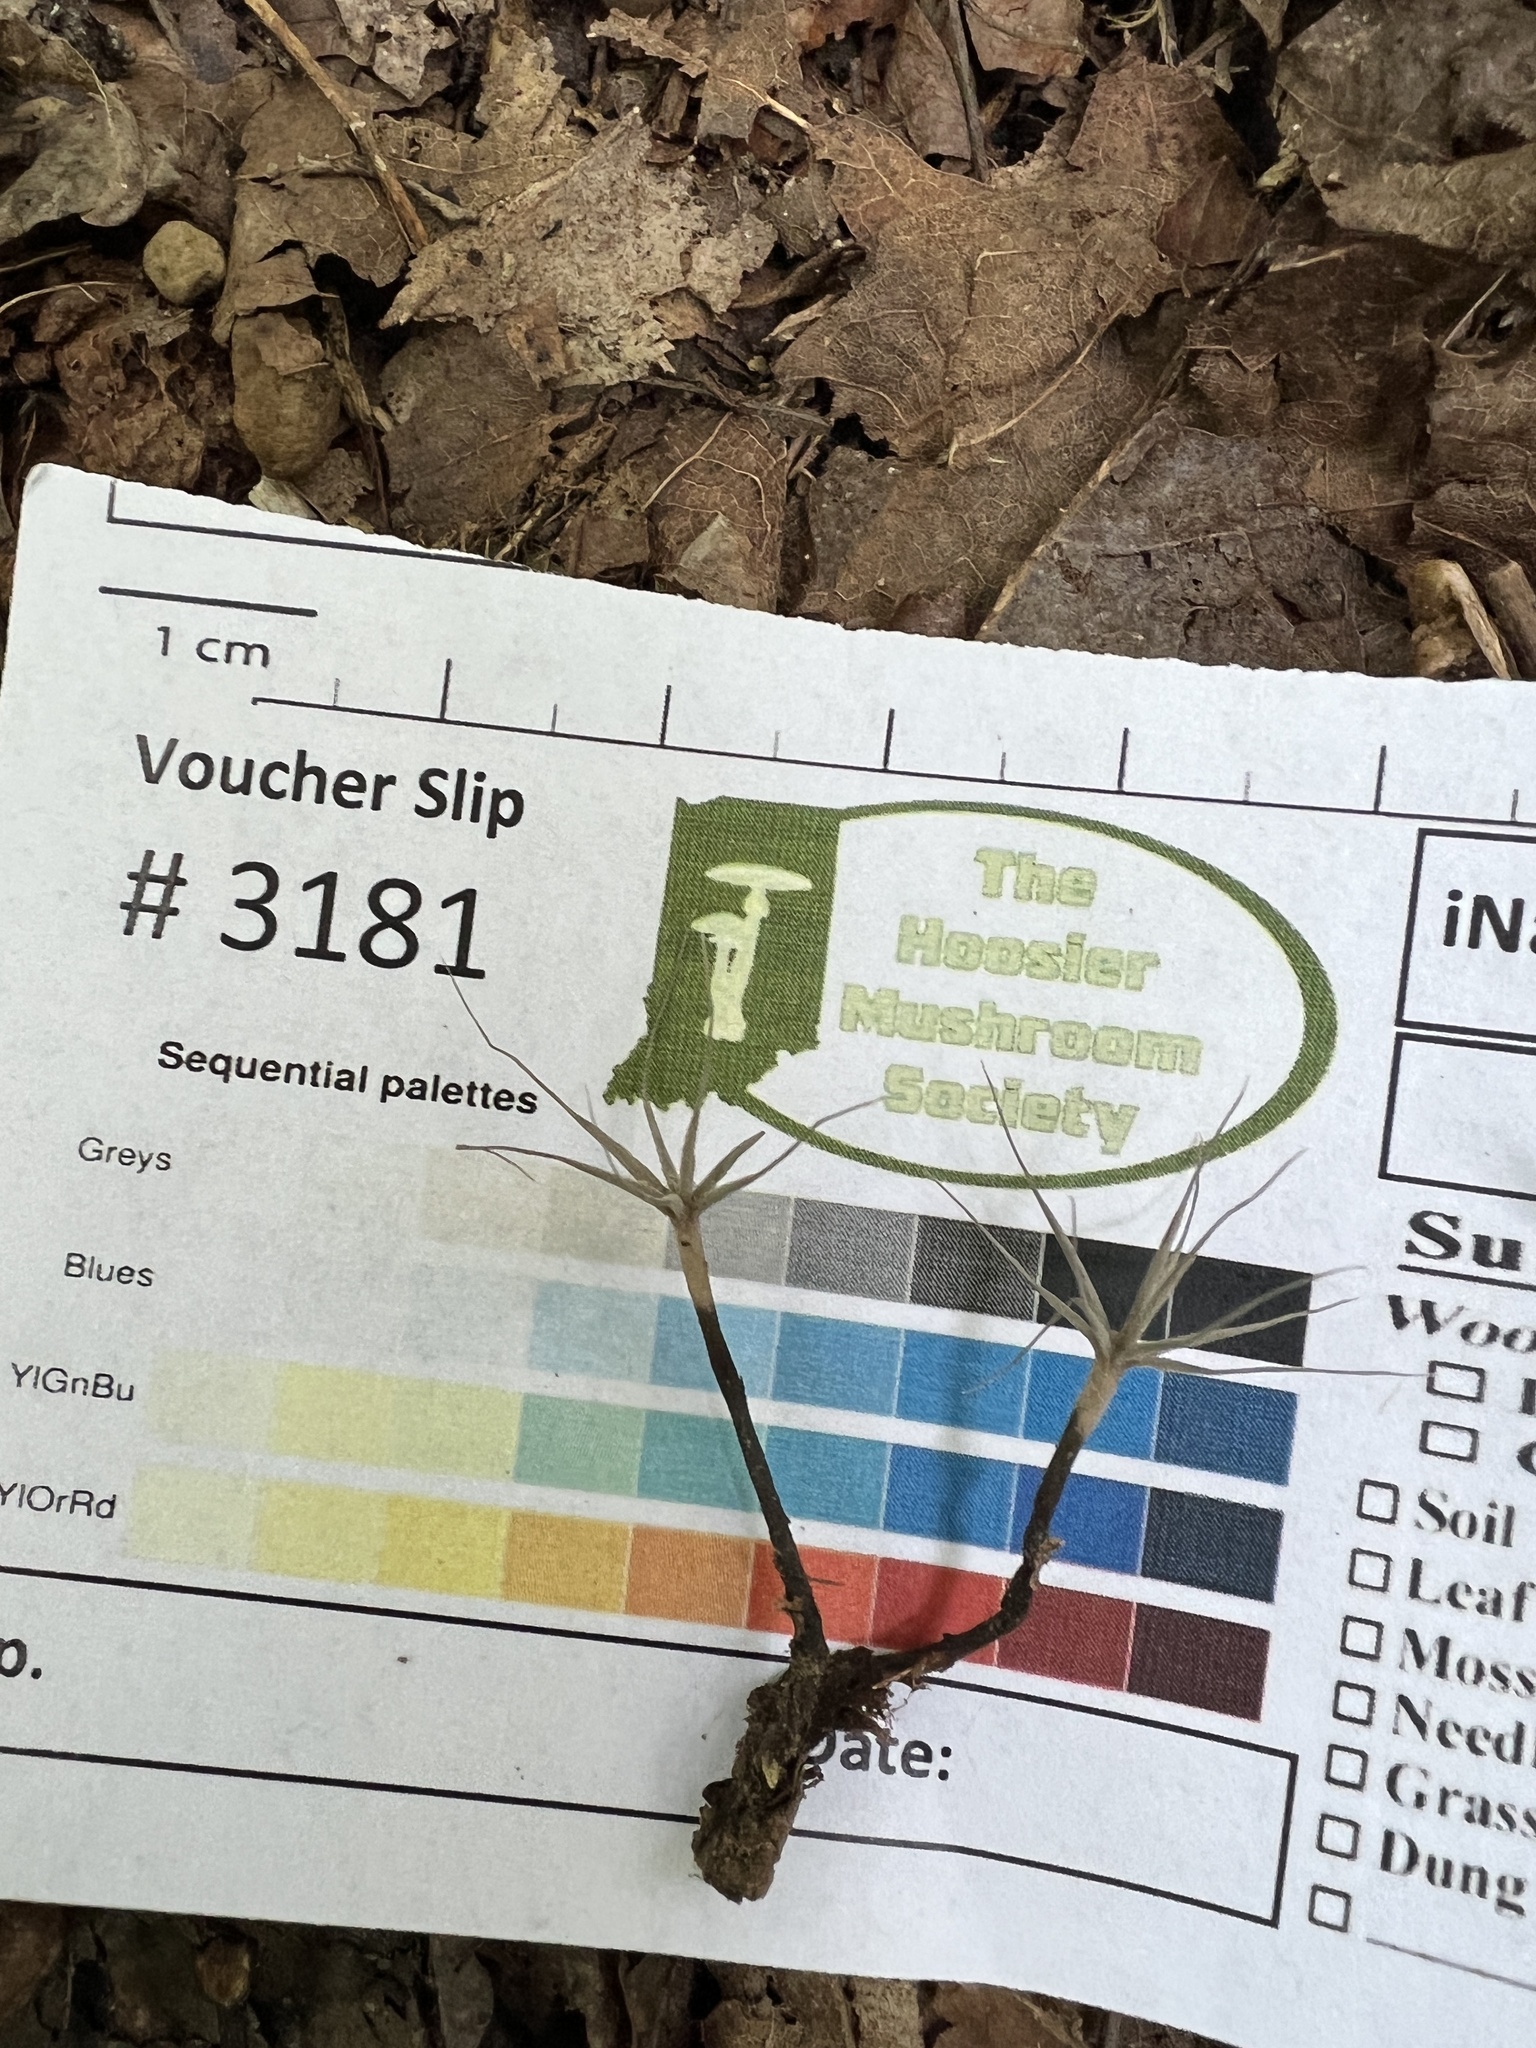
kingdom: Fungi
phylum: Ascomycota
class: Sordariomycetes
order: Xylariales
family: Xylariaceae
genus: Xylaria
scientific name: Xylaria tentaculata
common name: Fairy sparklers
